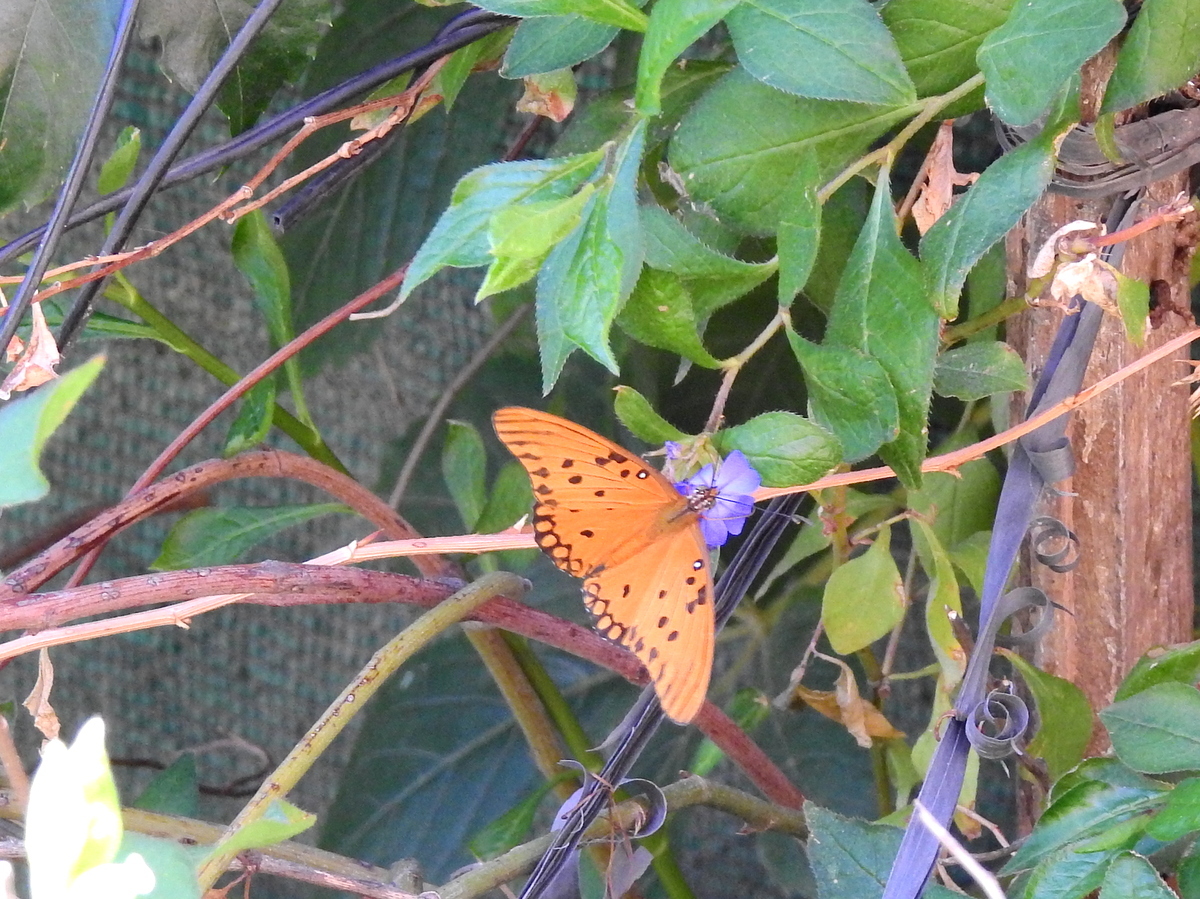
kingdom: Animalia
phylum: Arthropoda
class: Insecta
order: Lepidoptera
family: Nymphalidae
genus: Dione
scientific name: Dione vanillae
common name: Gulf fritillary
